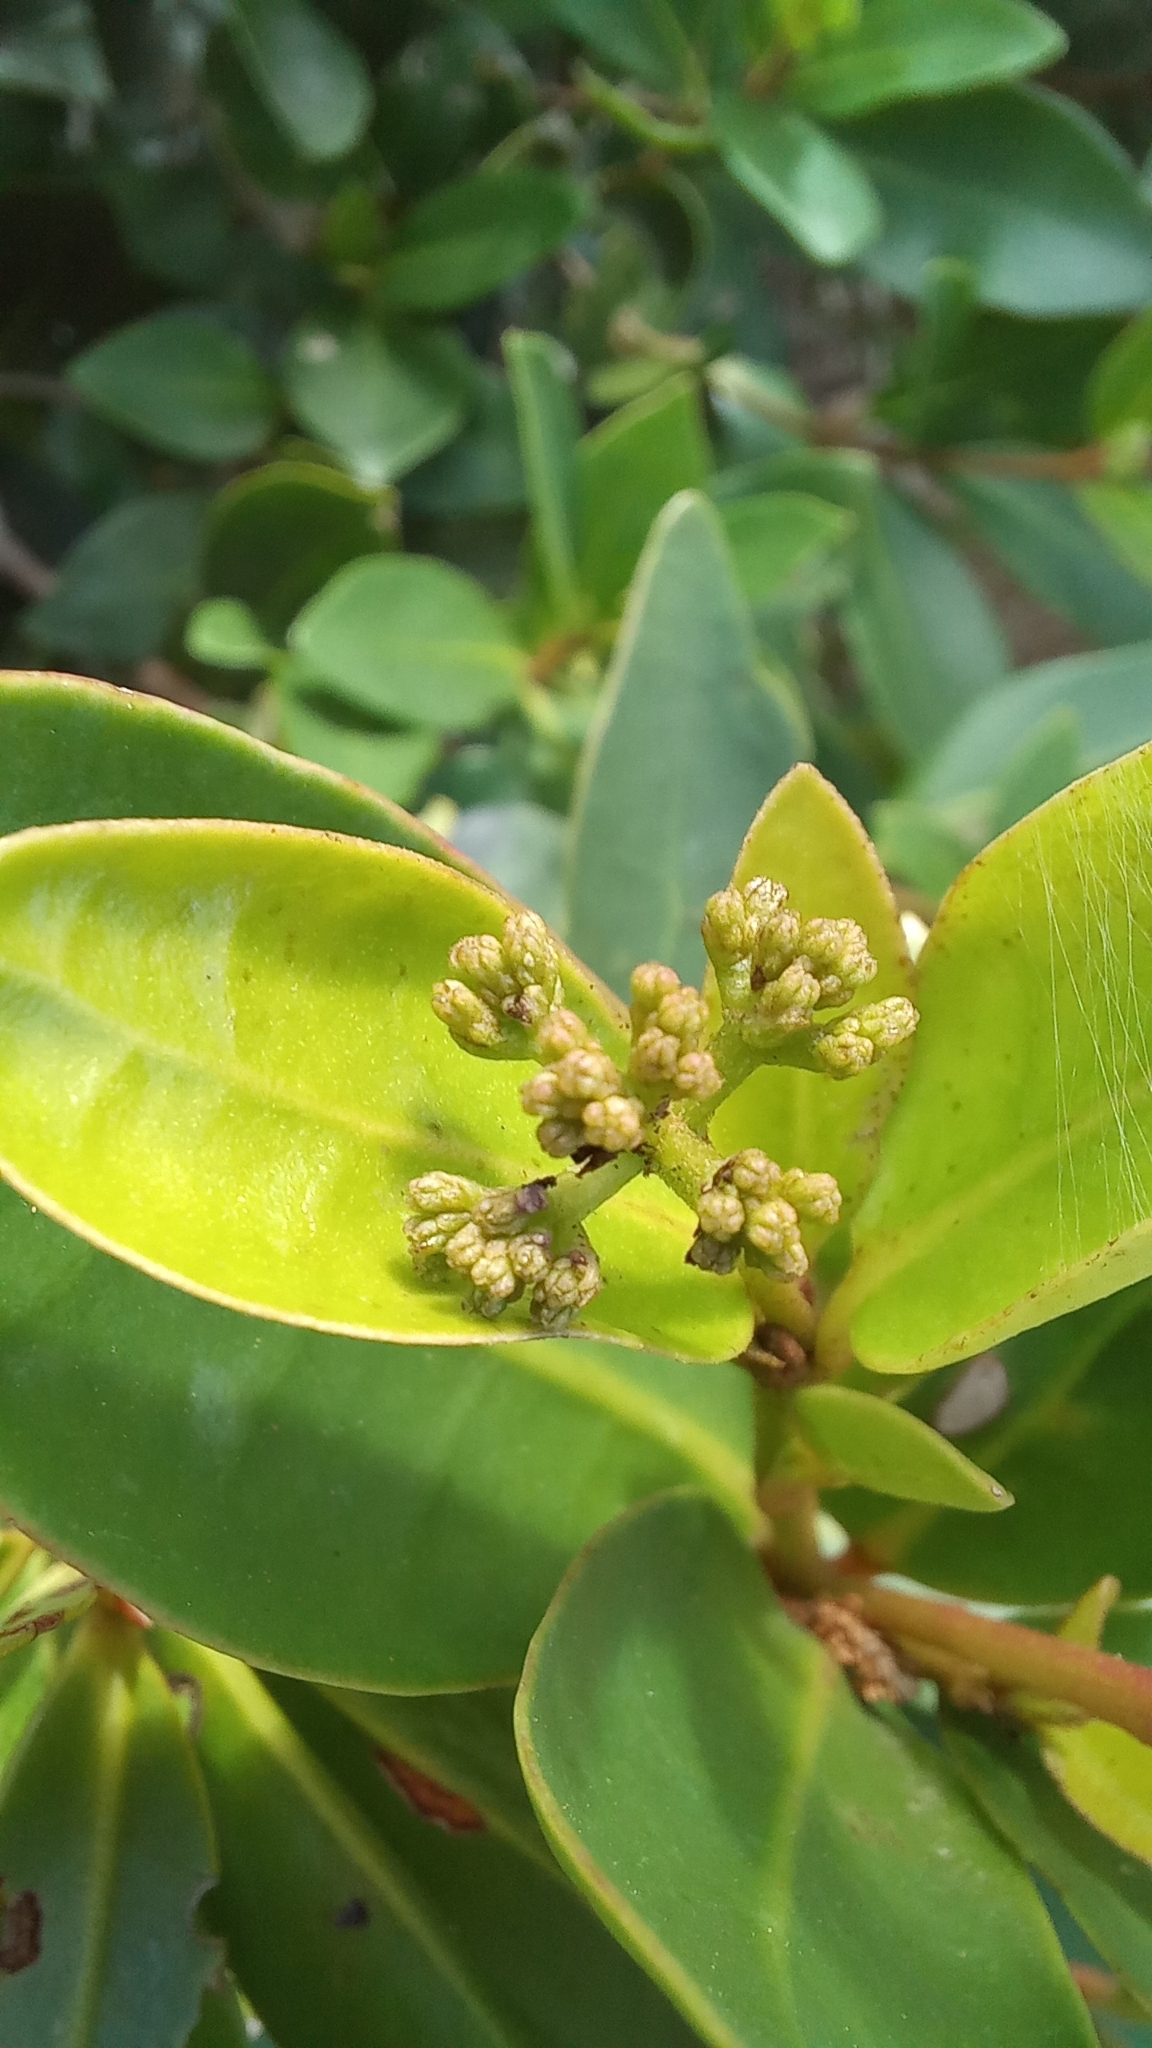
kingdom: Plantae
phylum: Tracheophyta
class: Magnoliopsida
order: Caryophyllales
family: Nyctaginaceae
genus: Guapira
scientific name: Guapira opposita
